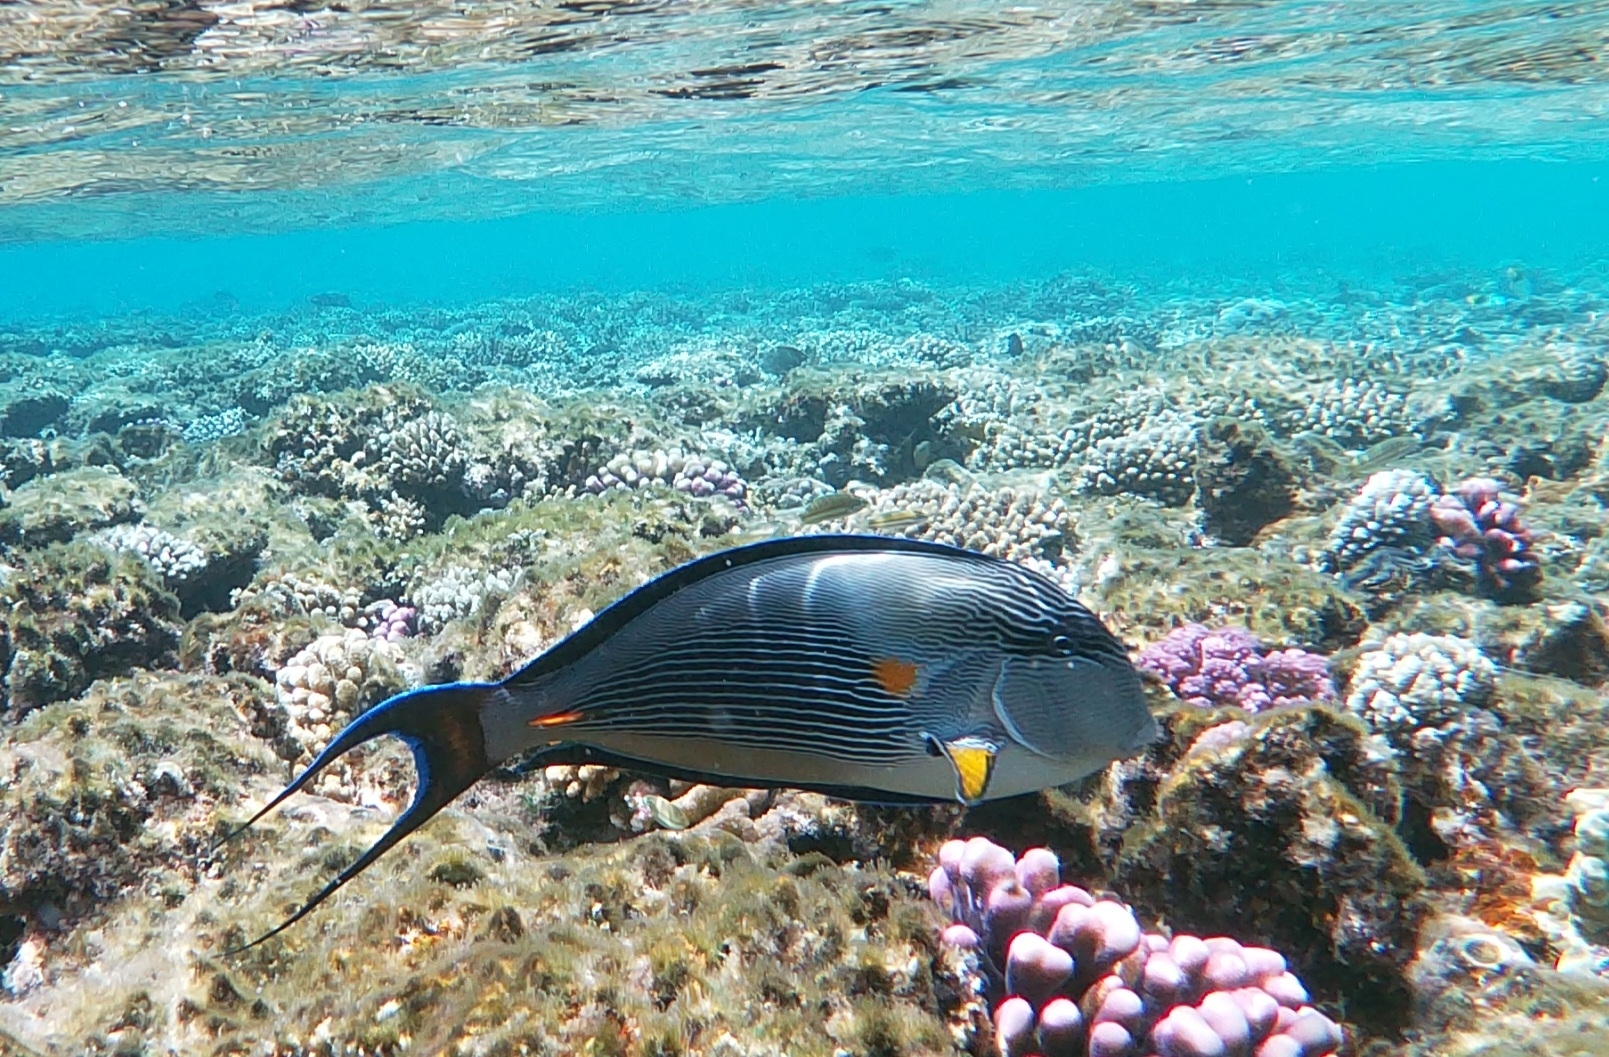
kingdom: Animalia
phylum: Chordata
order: Perciformes
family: Acanthuridae
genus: Acanthurus
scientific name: Acanthurus sohal
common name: Red sea surgeonfish
